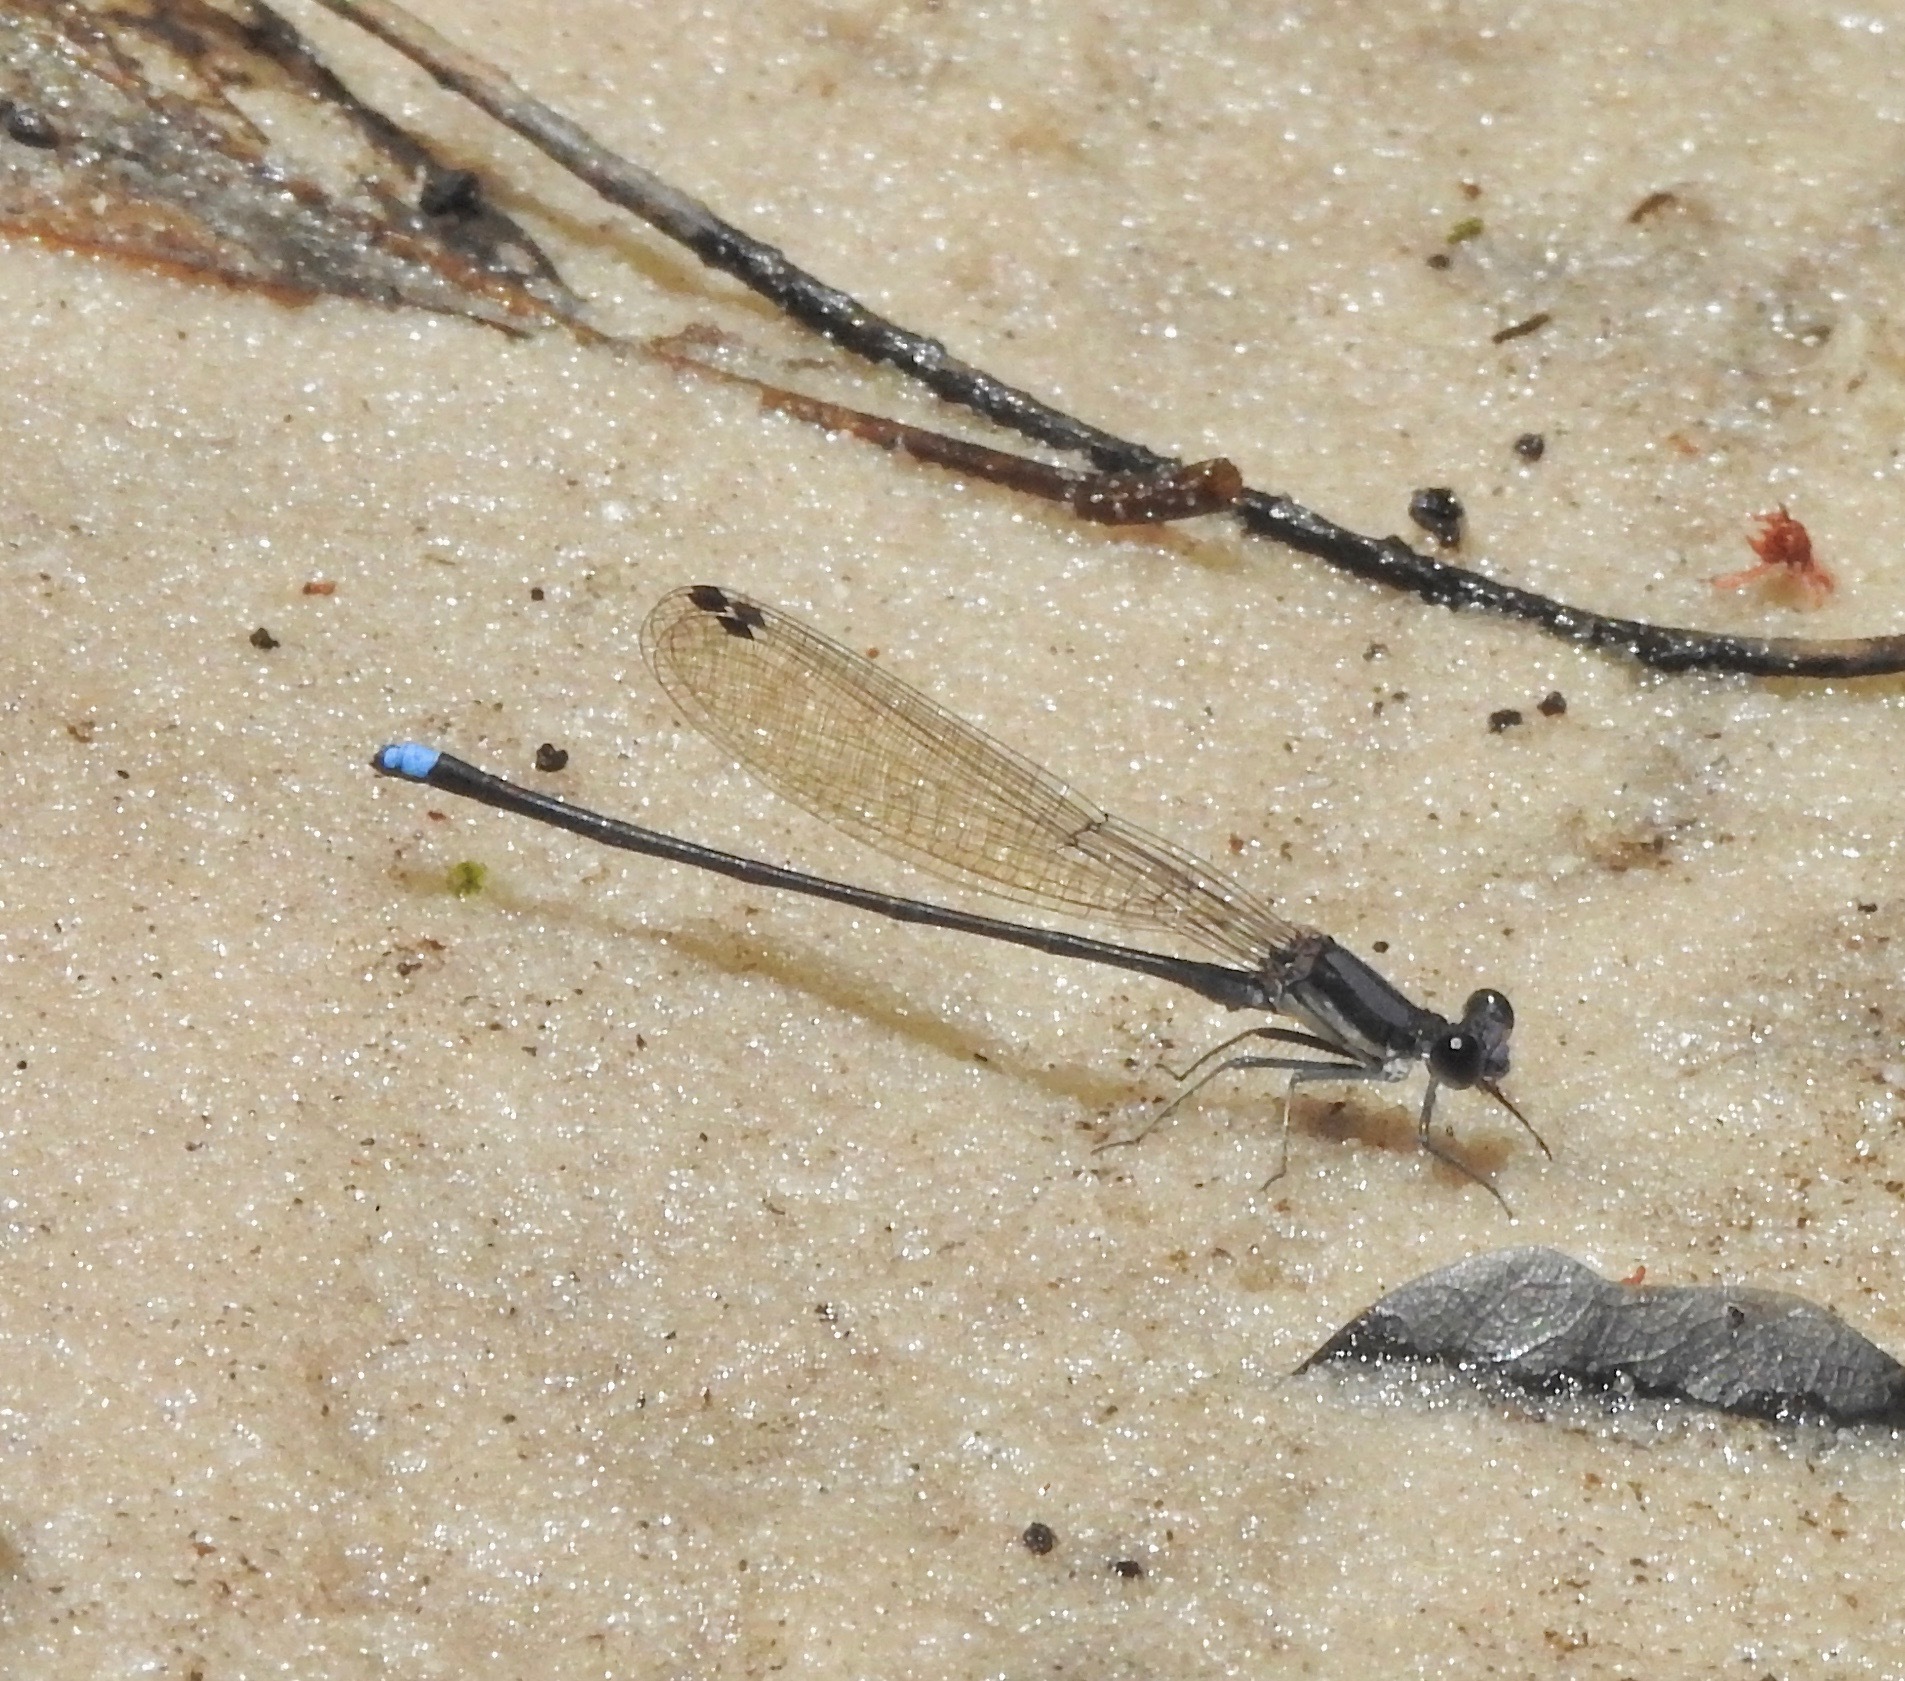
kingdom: Animalia
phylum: Arthropoda
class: Insecta
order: Odonata
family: Coenagrionidae
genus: Argia
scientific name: Argia tibialis
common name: Blue-tipped dancer
